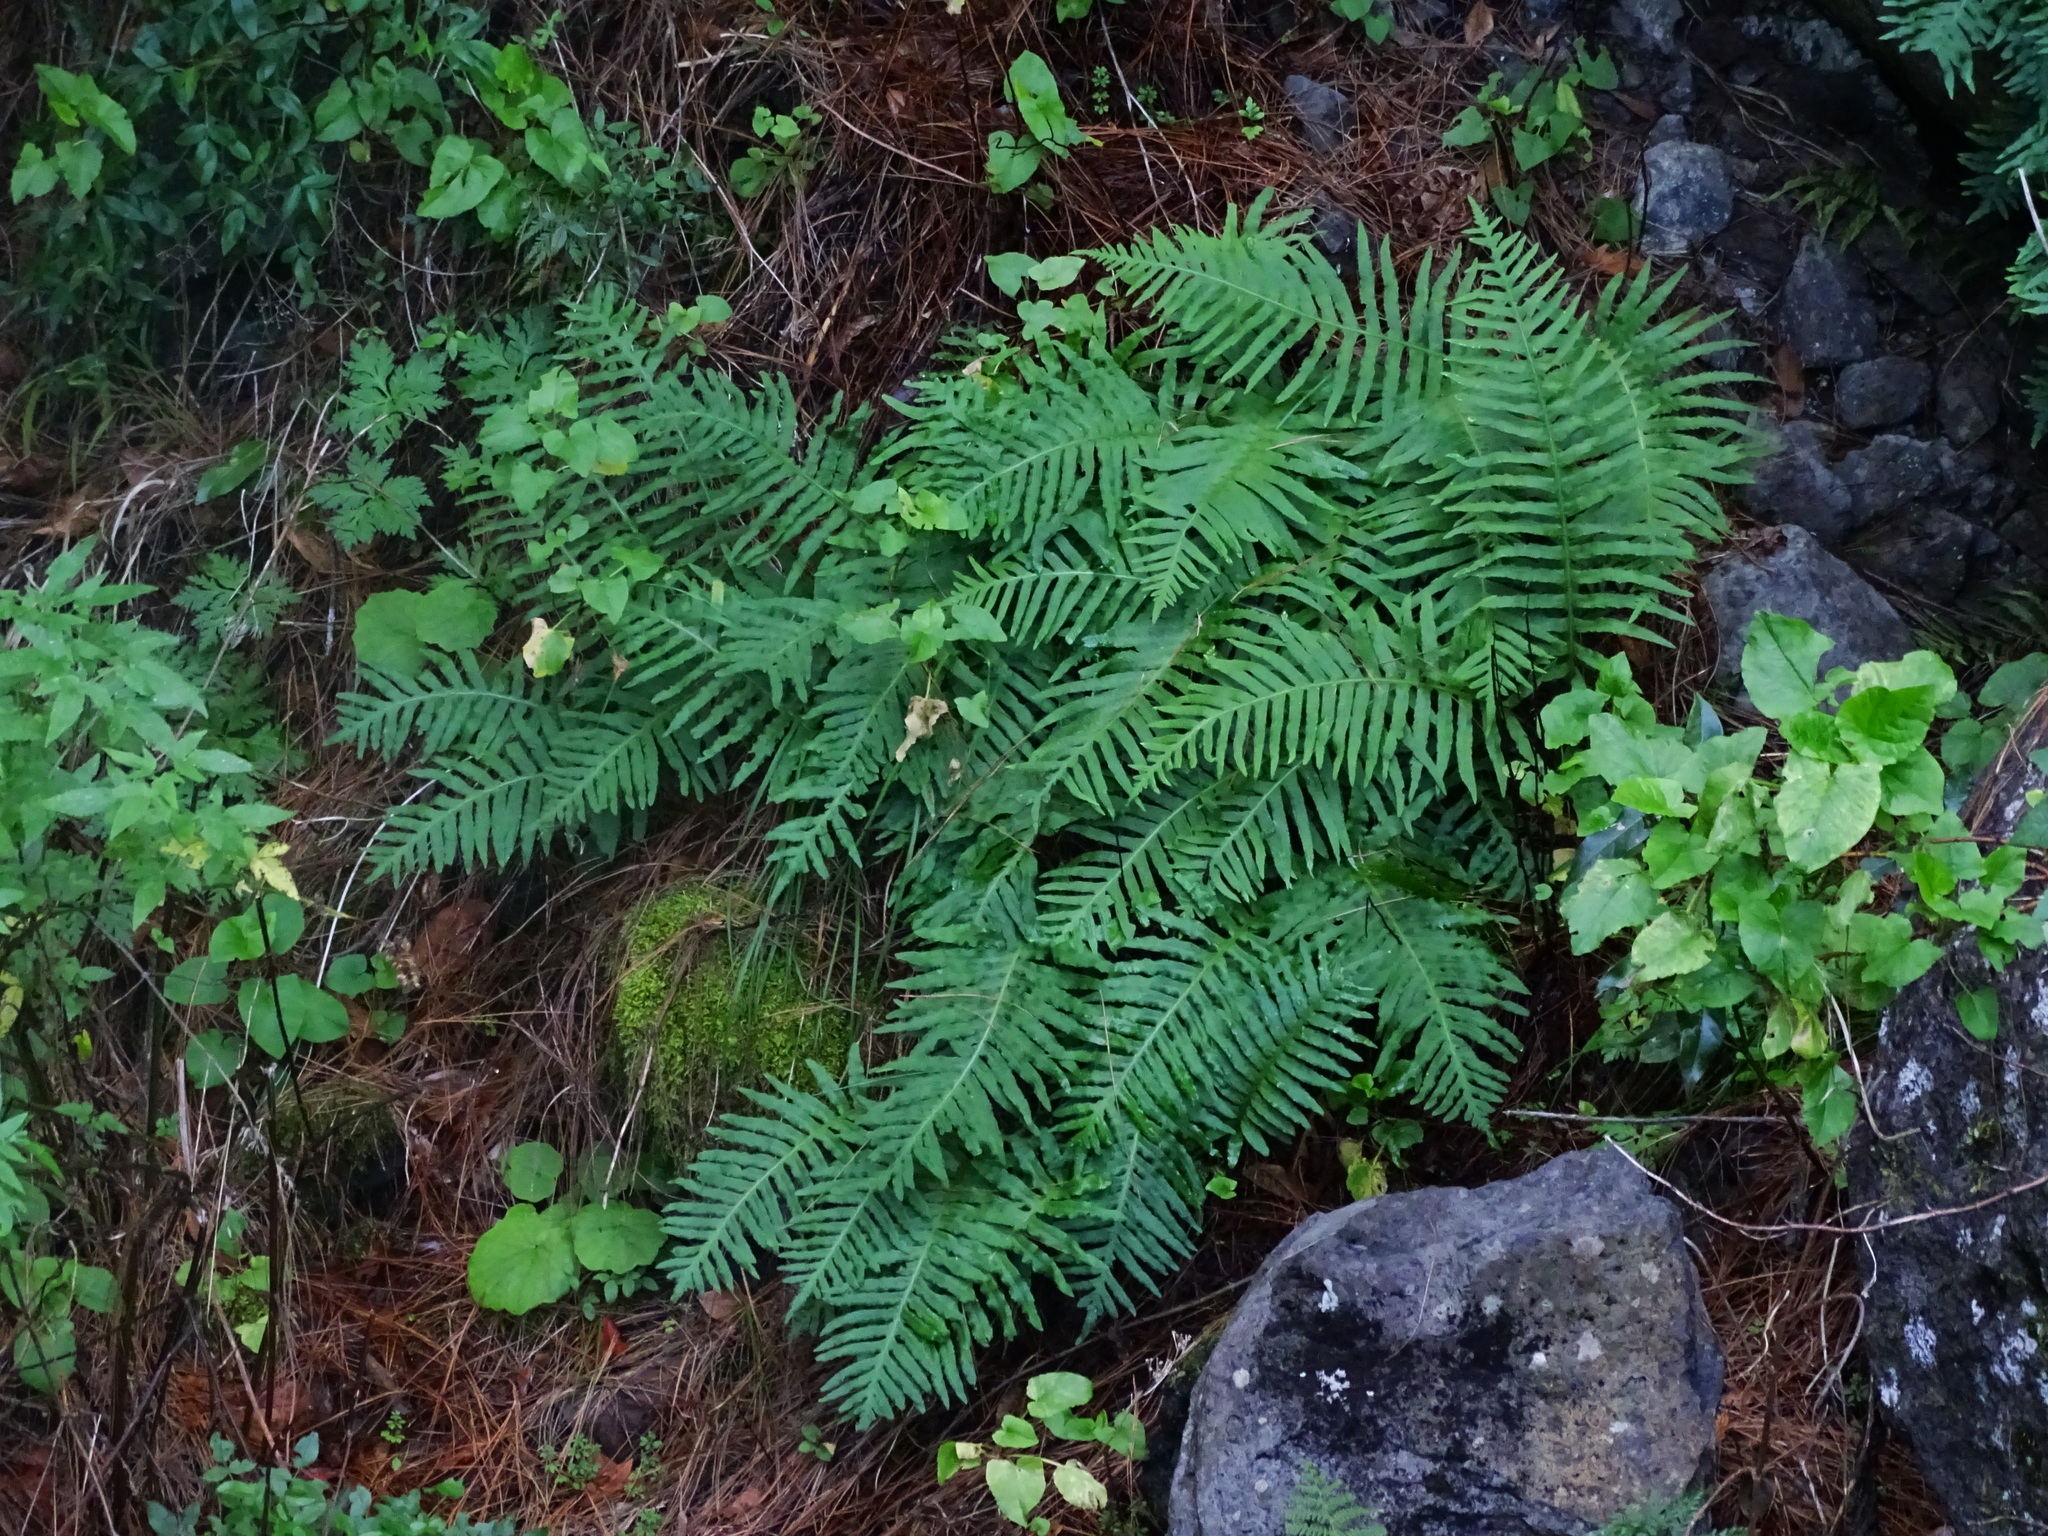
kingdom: Plantae
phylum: Tracheophyta
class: Polypodiopsida
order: Polypodiales
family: Polypodiaceae
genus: Polypodium
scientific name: Polypodium macaronesicum
